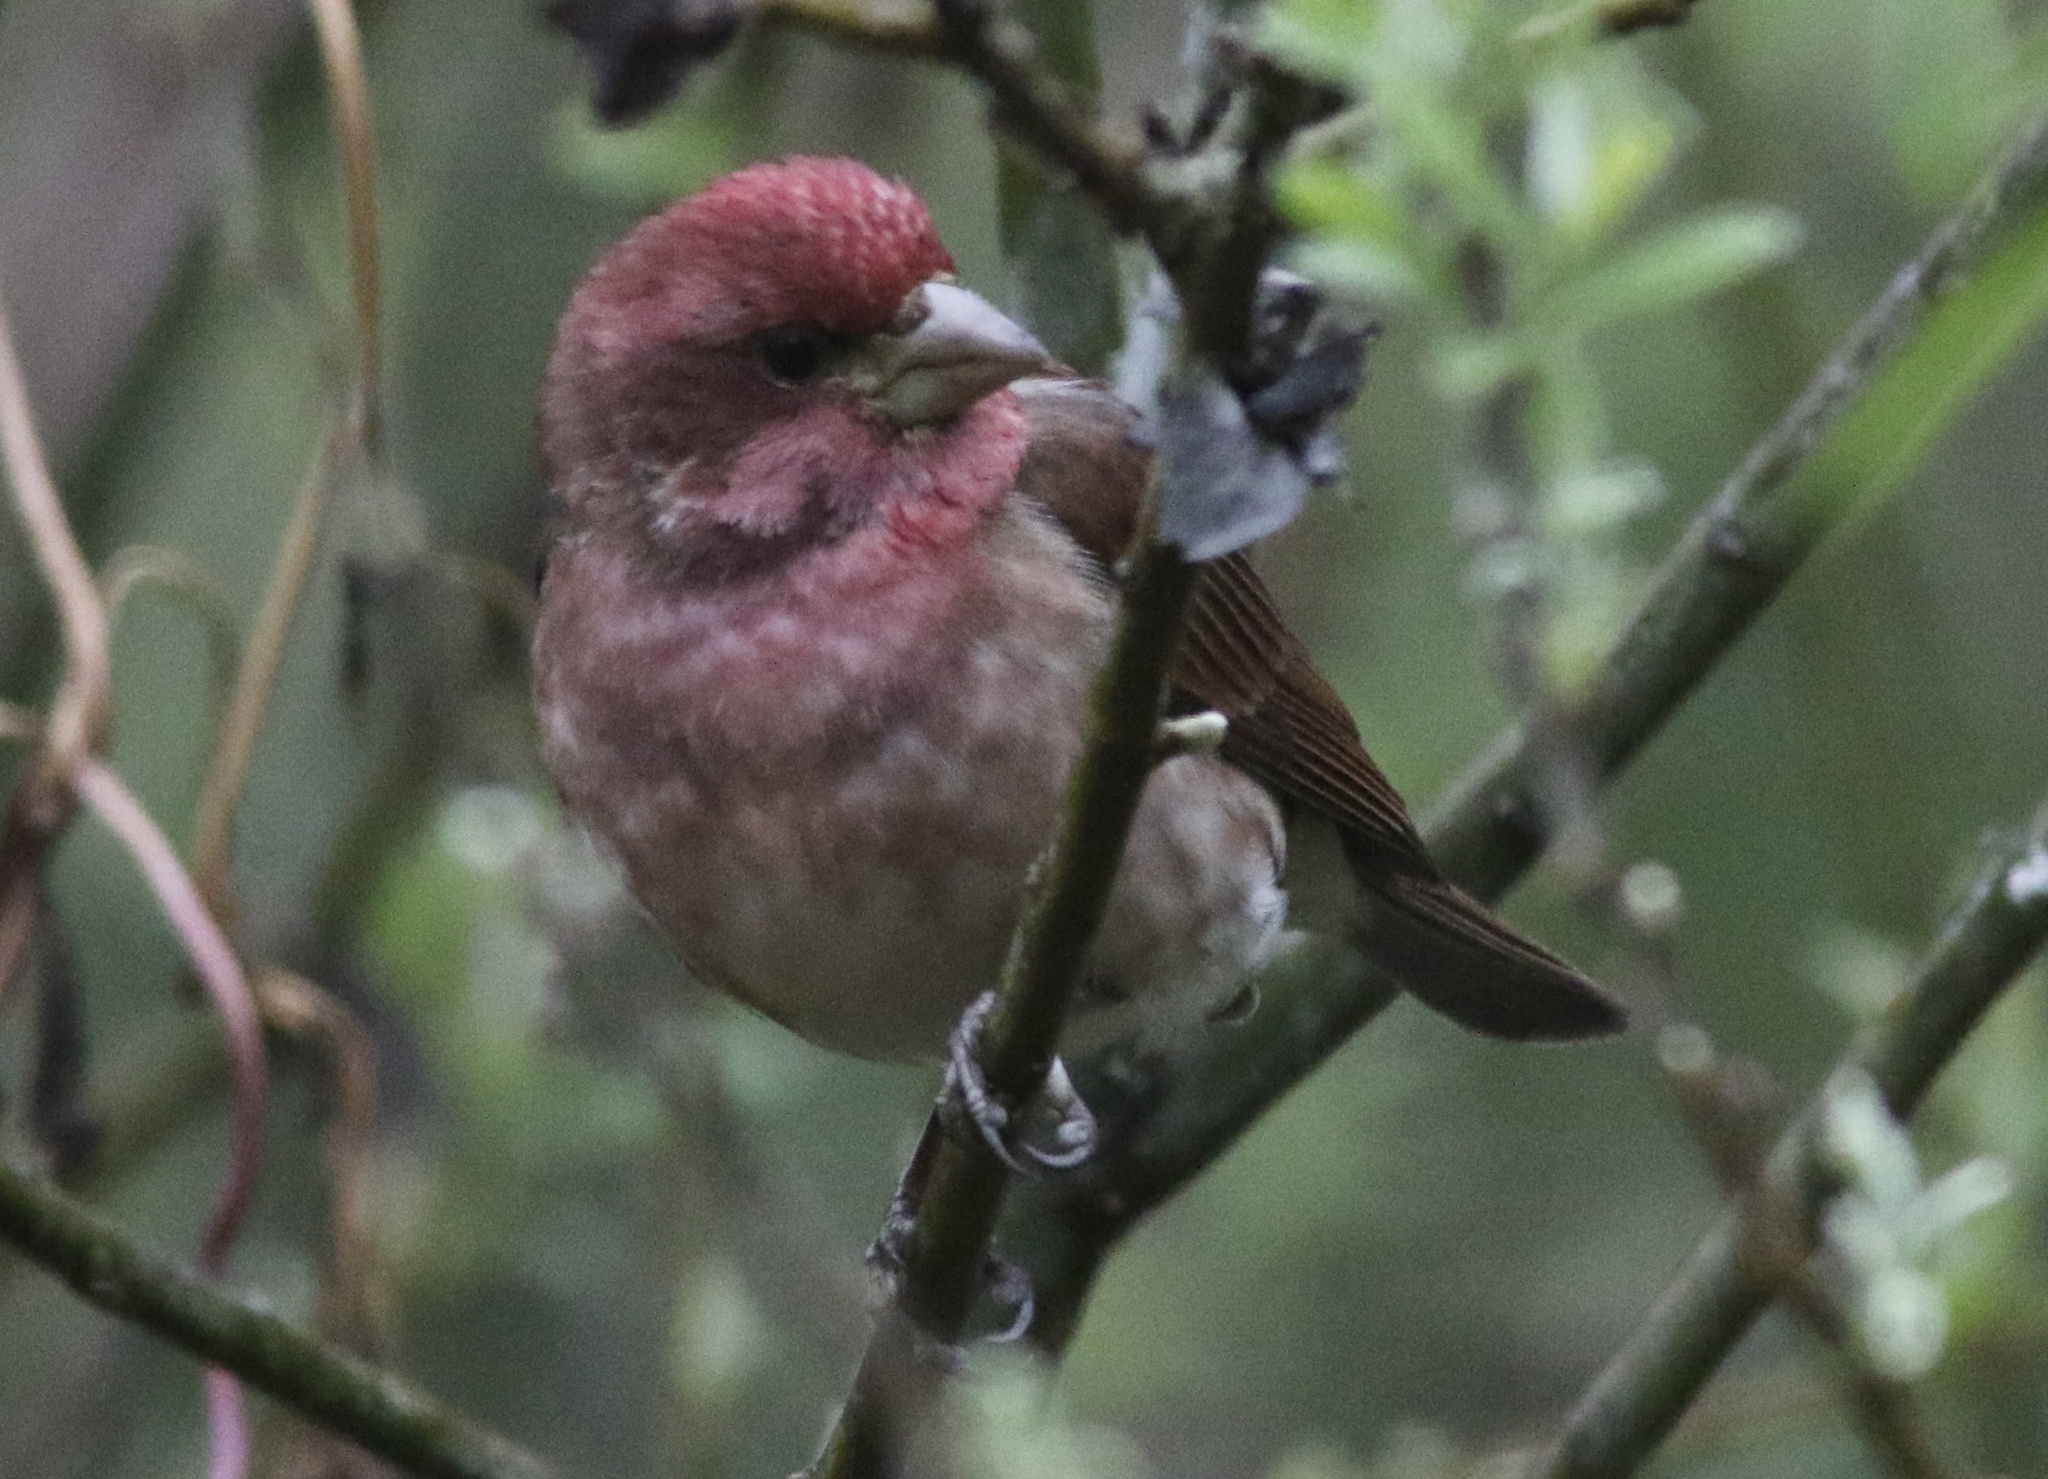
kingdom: Animalia
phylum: Chordata
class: Aves
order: Passeriformes
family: Fringillidae
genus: Haemorhous
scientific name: Haemorhous purpureus
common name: Purple finch
